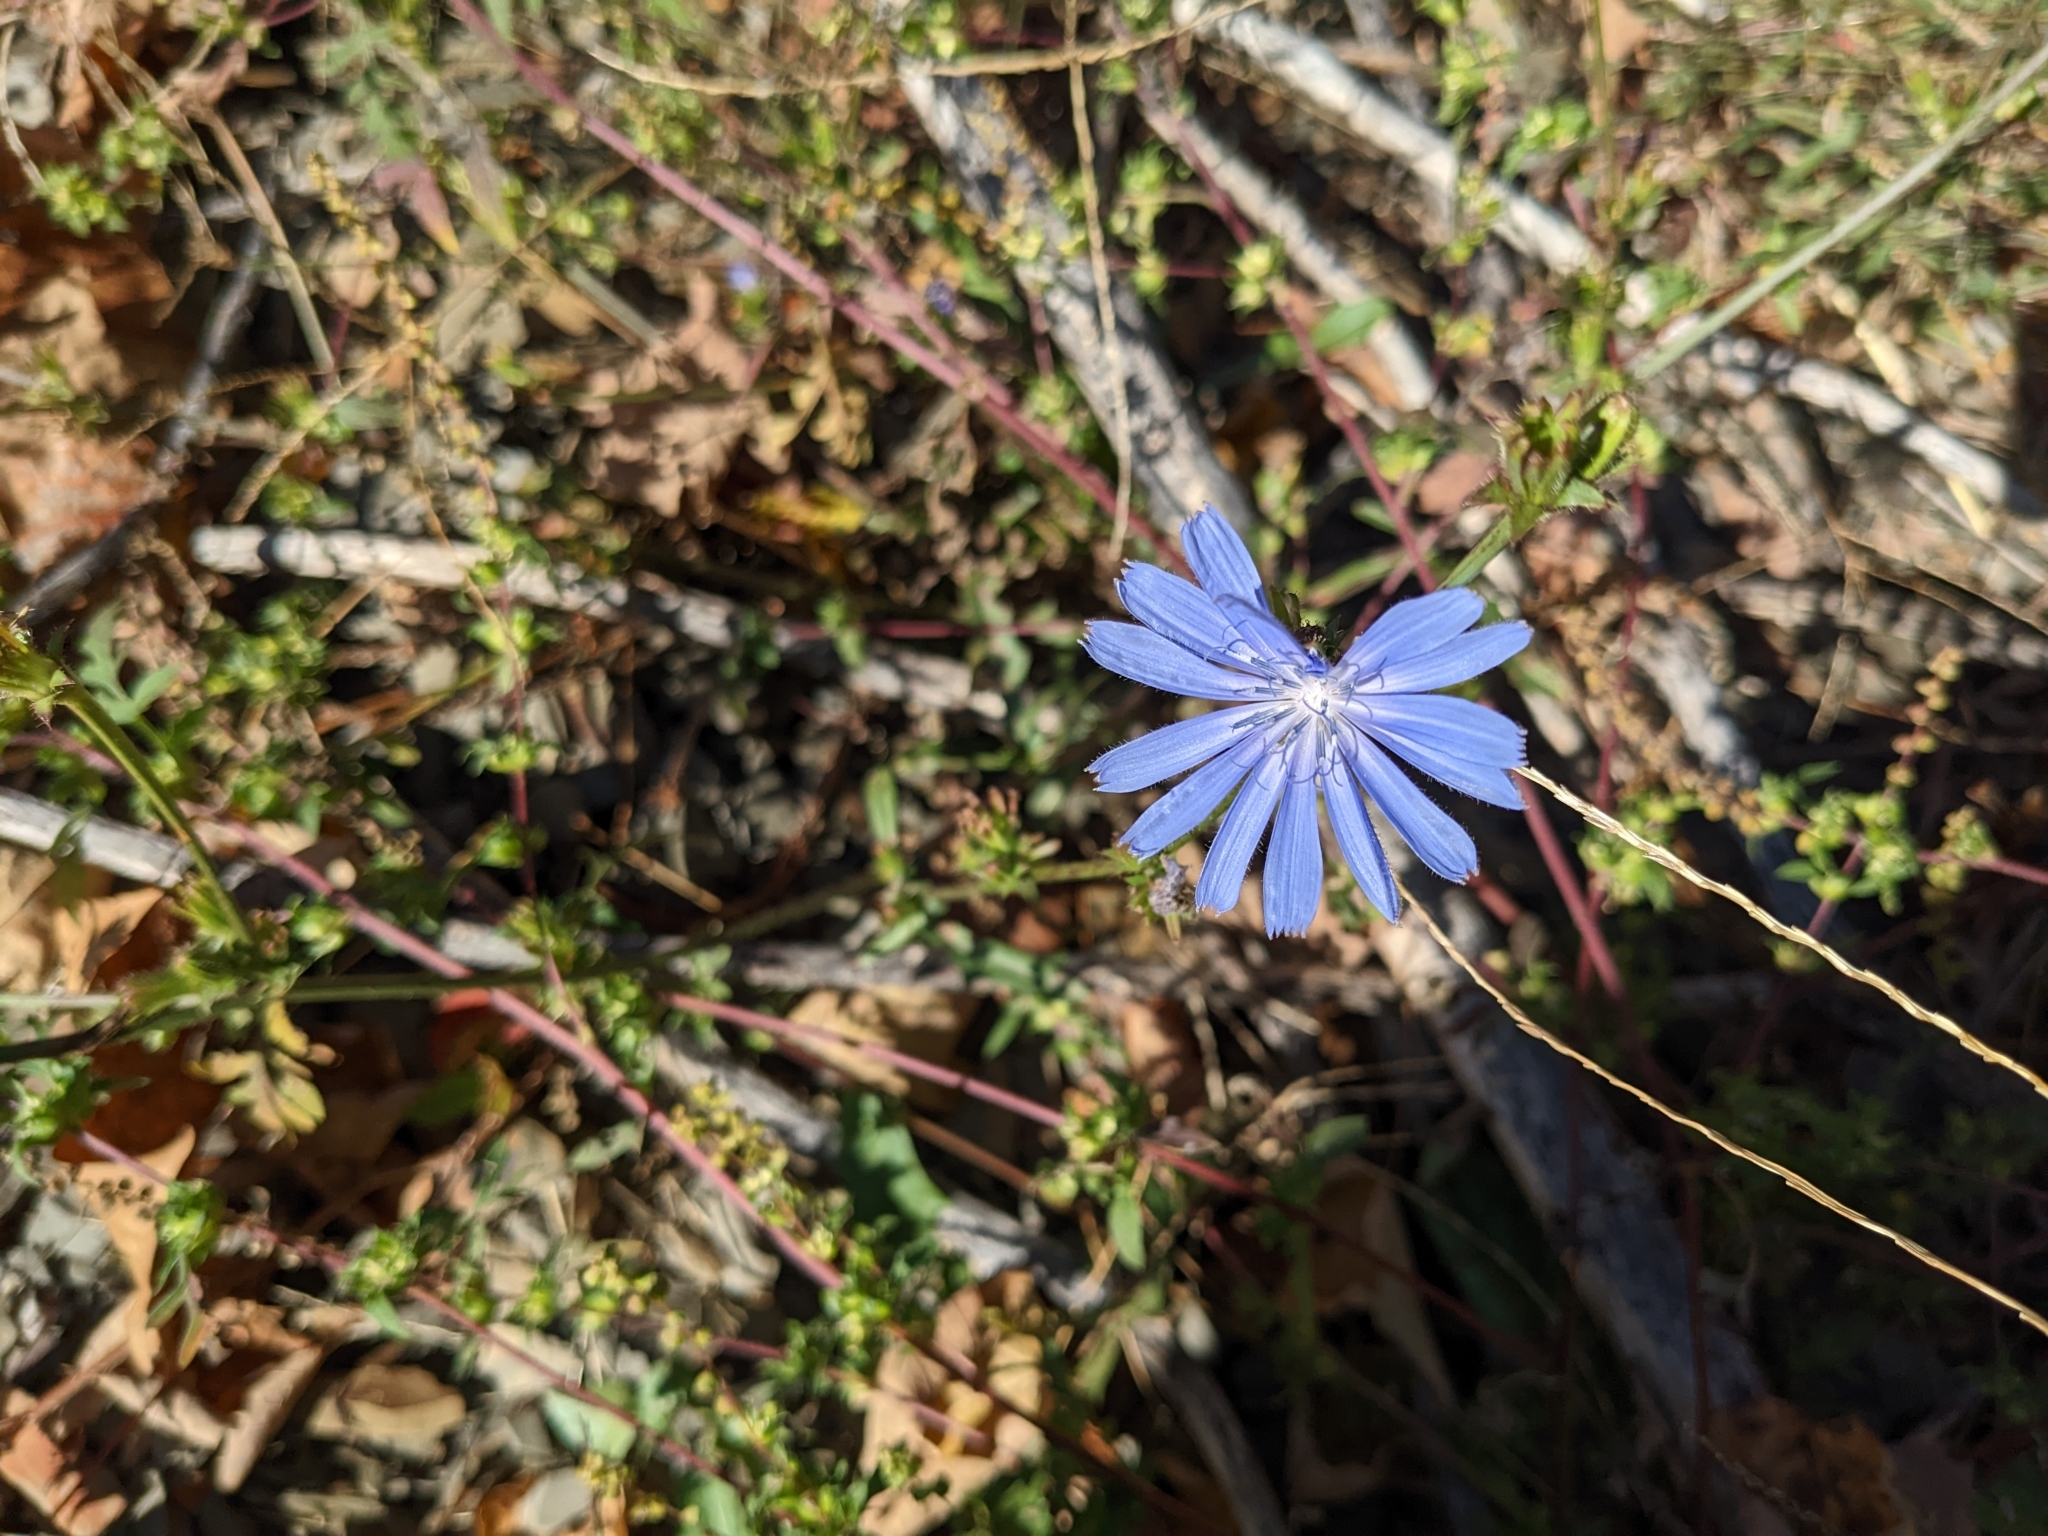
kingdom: Plantae
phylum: Tracheophyta
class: Magnoliopsida
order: Asterales
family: Asteraceae
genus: Cichorium
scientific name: Cichorium intybus
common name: Chicory
